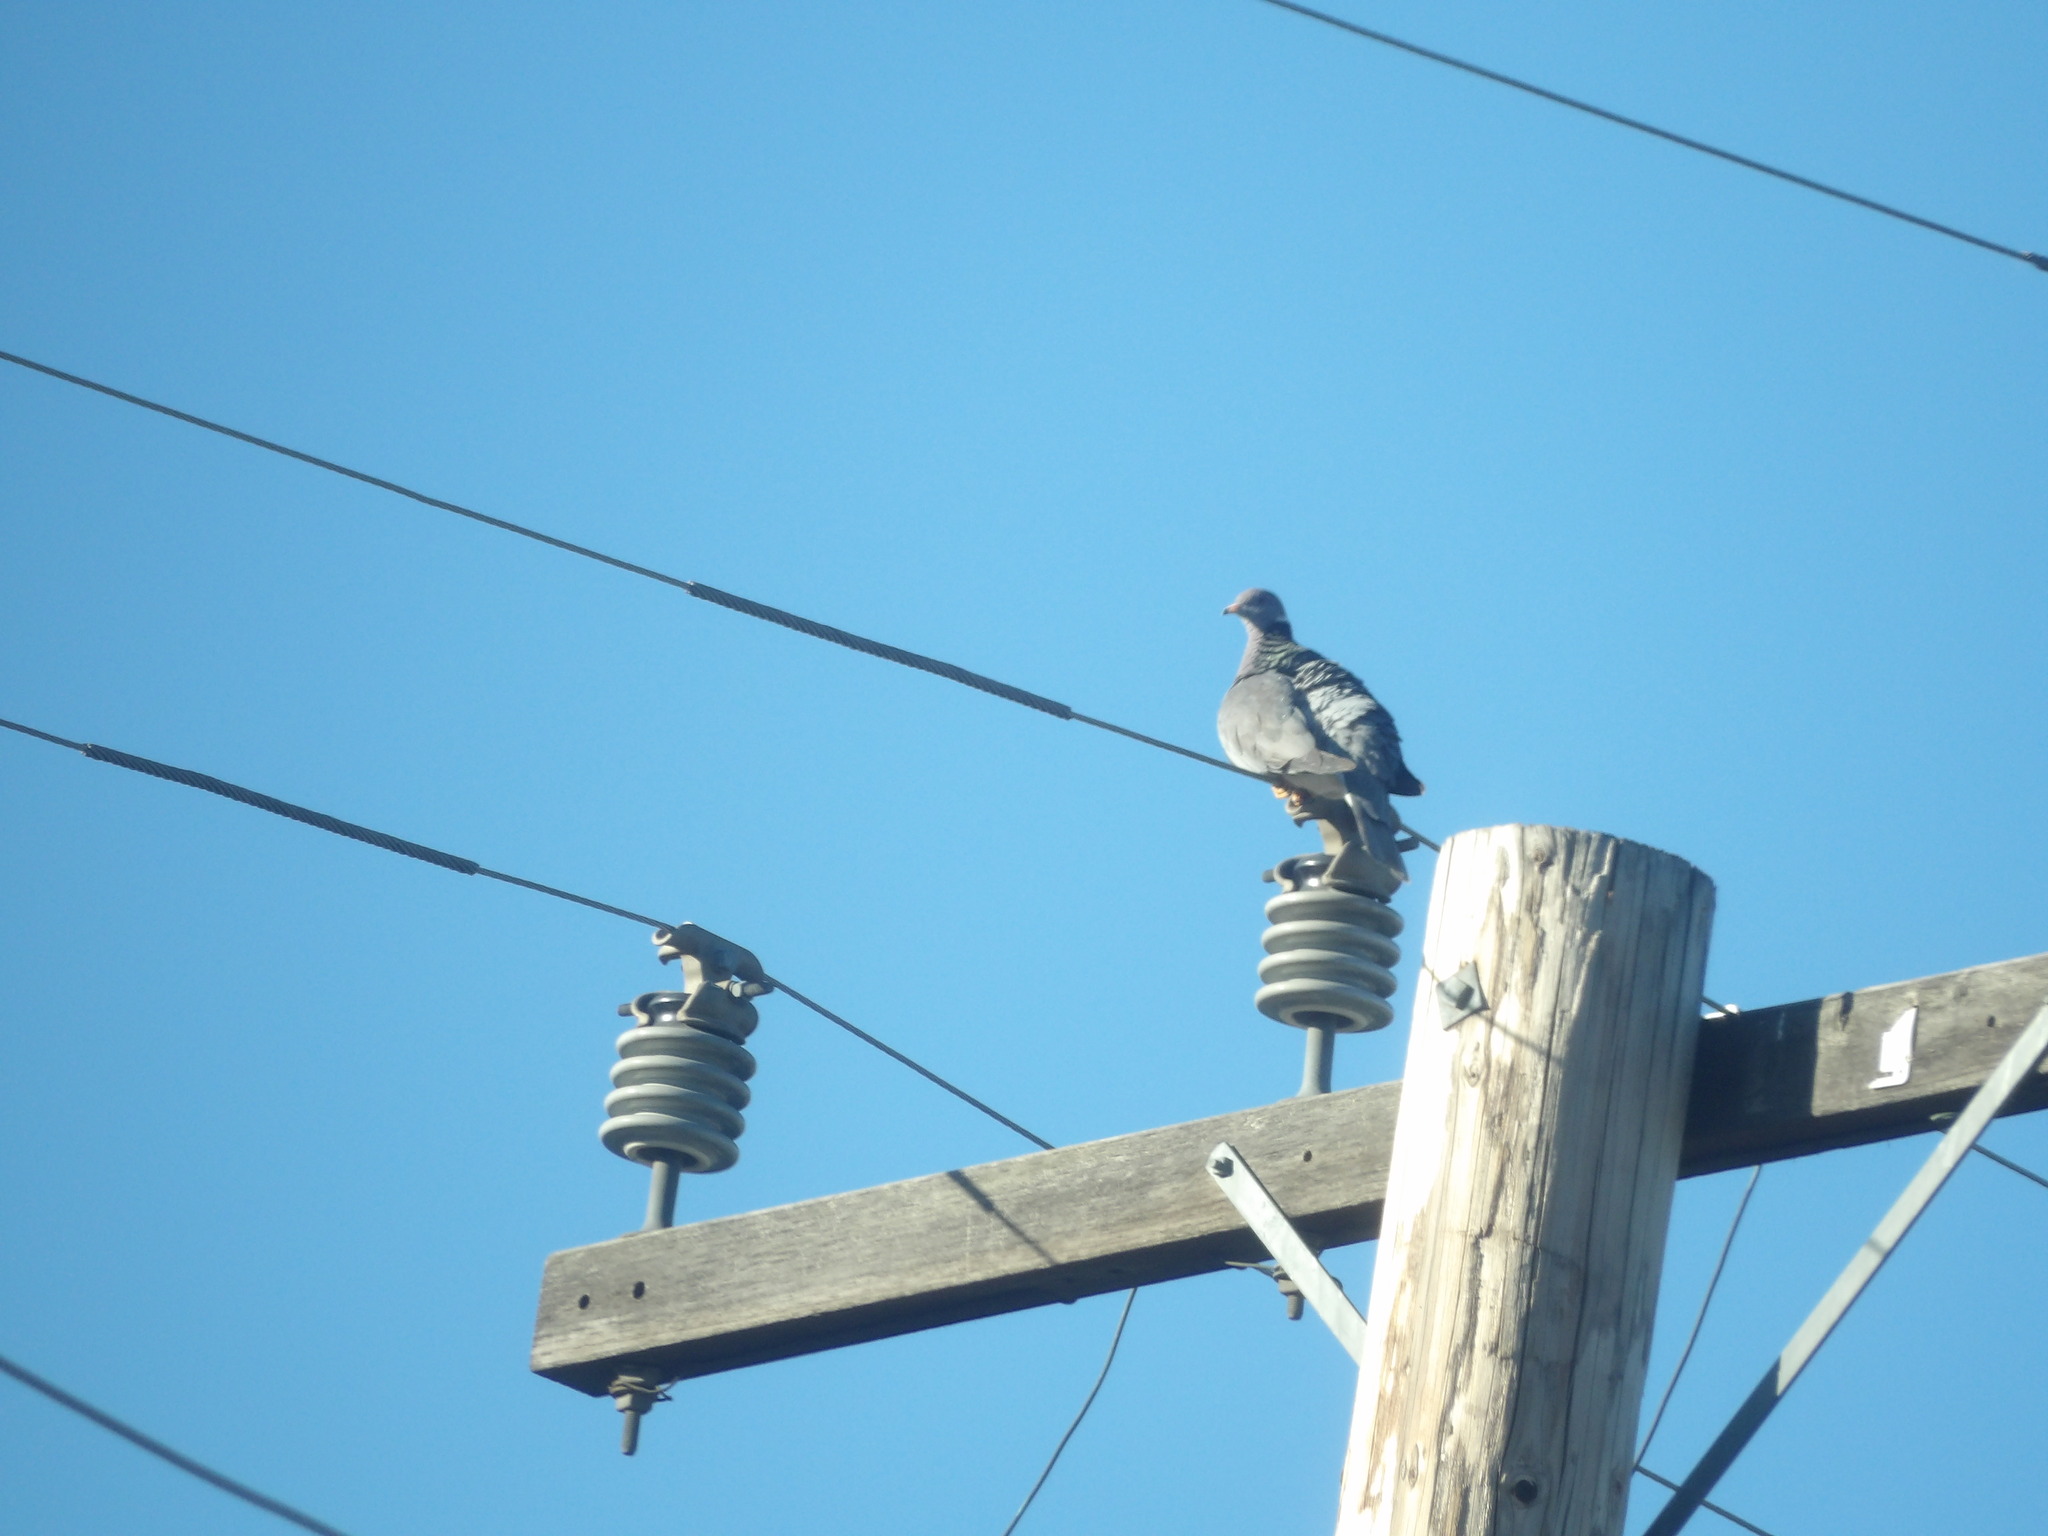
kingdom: Animalia
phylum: Chordata
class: Aves
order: Columbiformes
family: Columbidae
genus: Patagioenas
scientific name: Patagioenas fasciata
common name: Band-tailed pigeon
